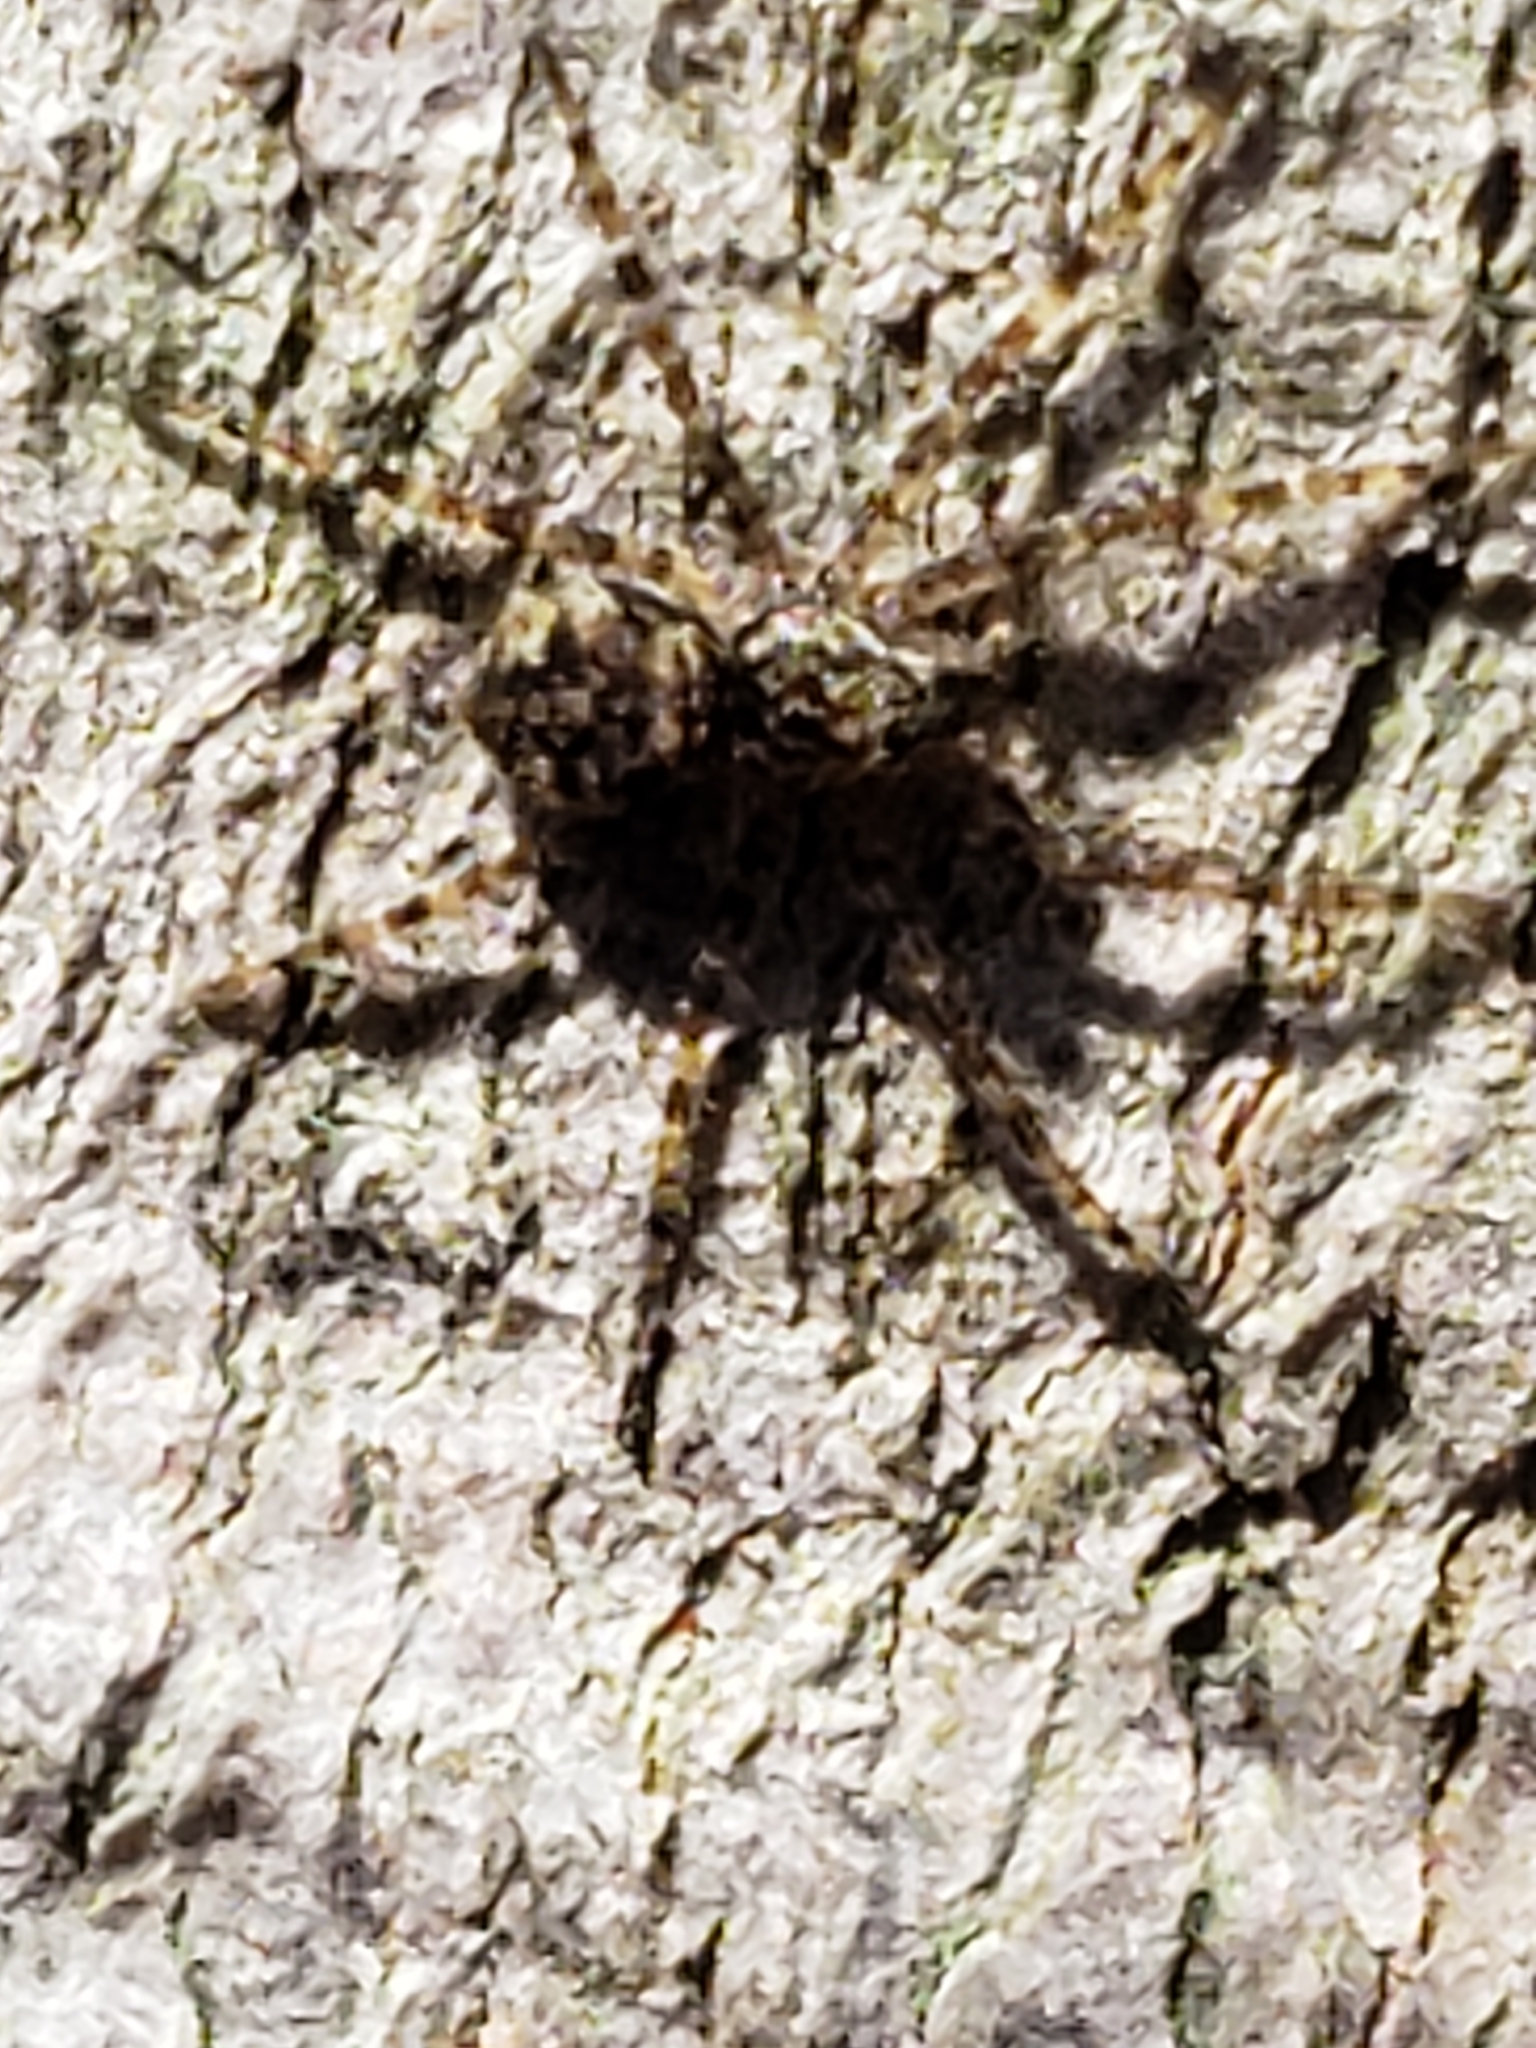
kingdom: Animalia
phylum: Arthropoda
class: Arachnida
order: Araneae
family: Pisauridae
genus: Dolomedes
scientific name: Dolomedes albineus
